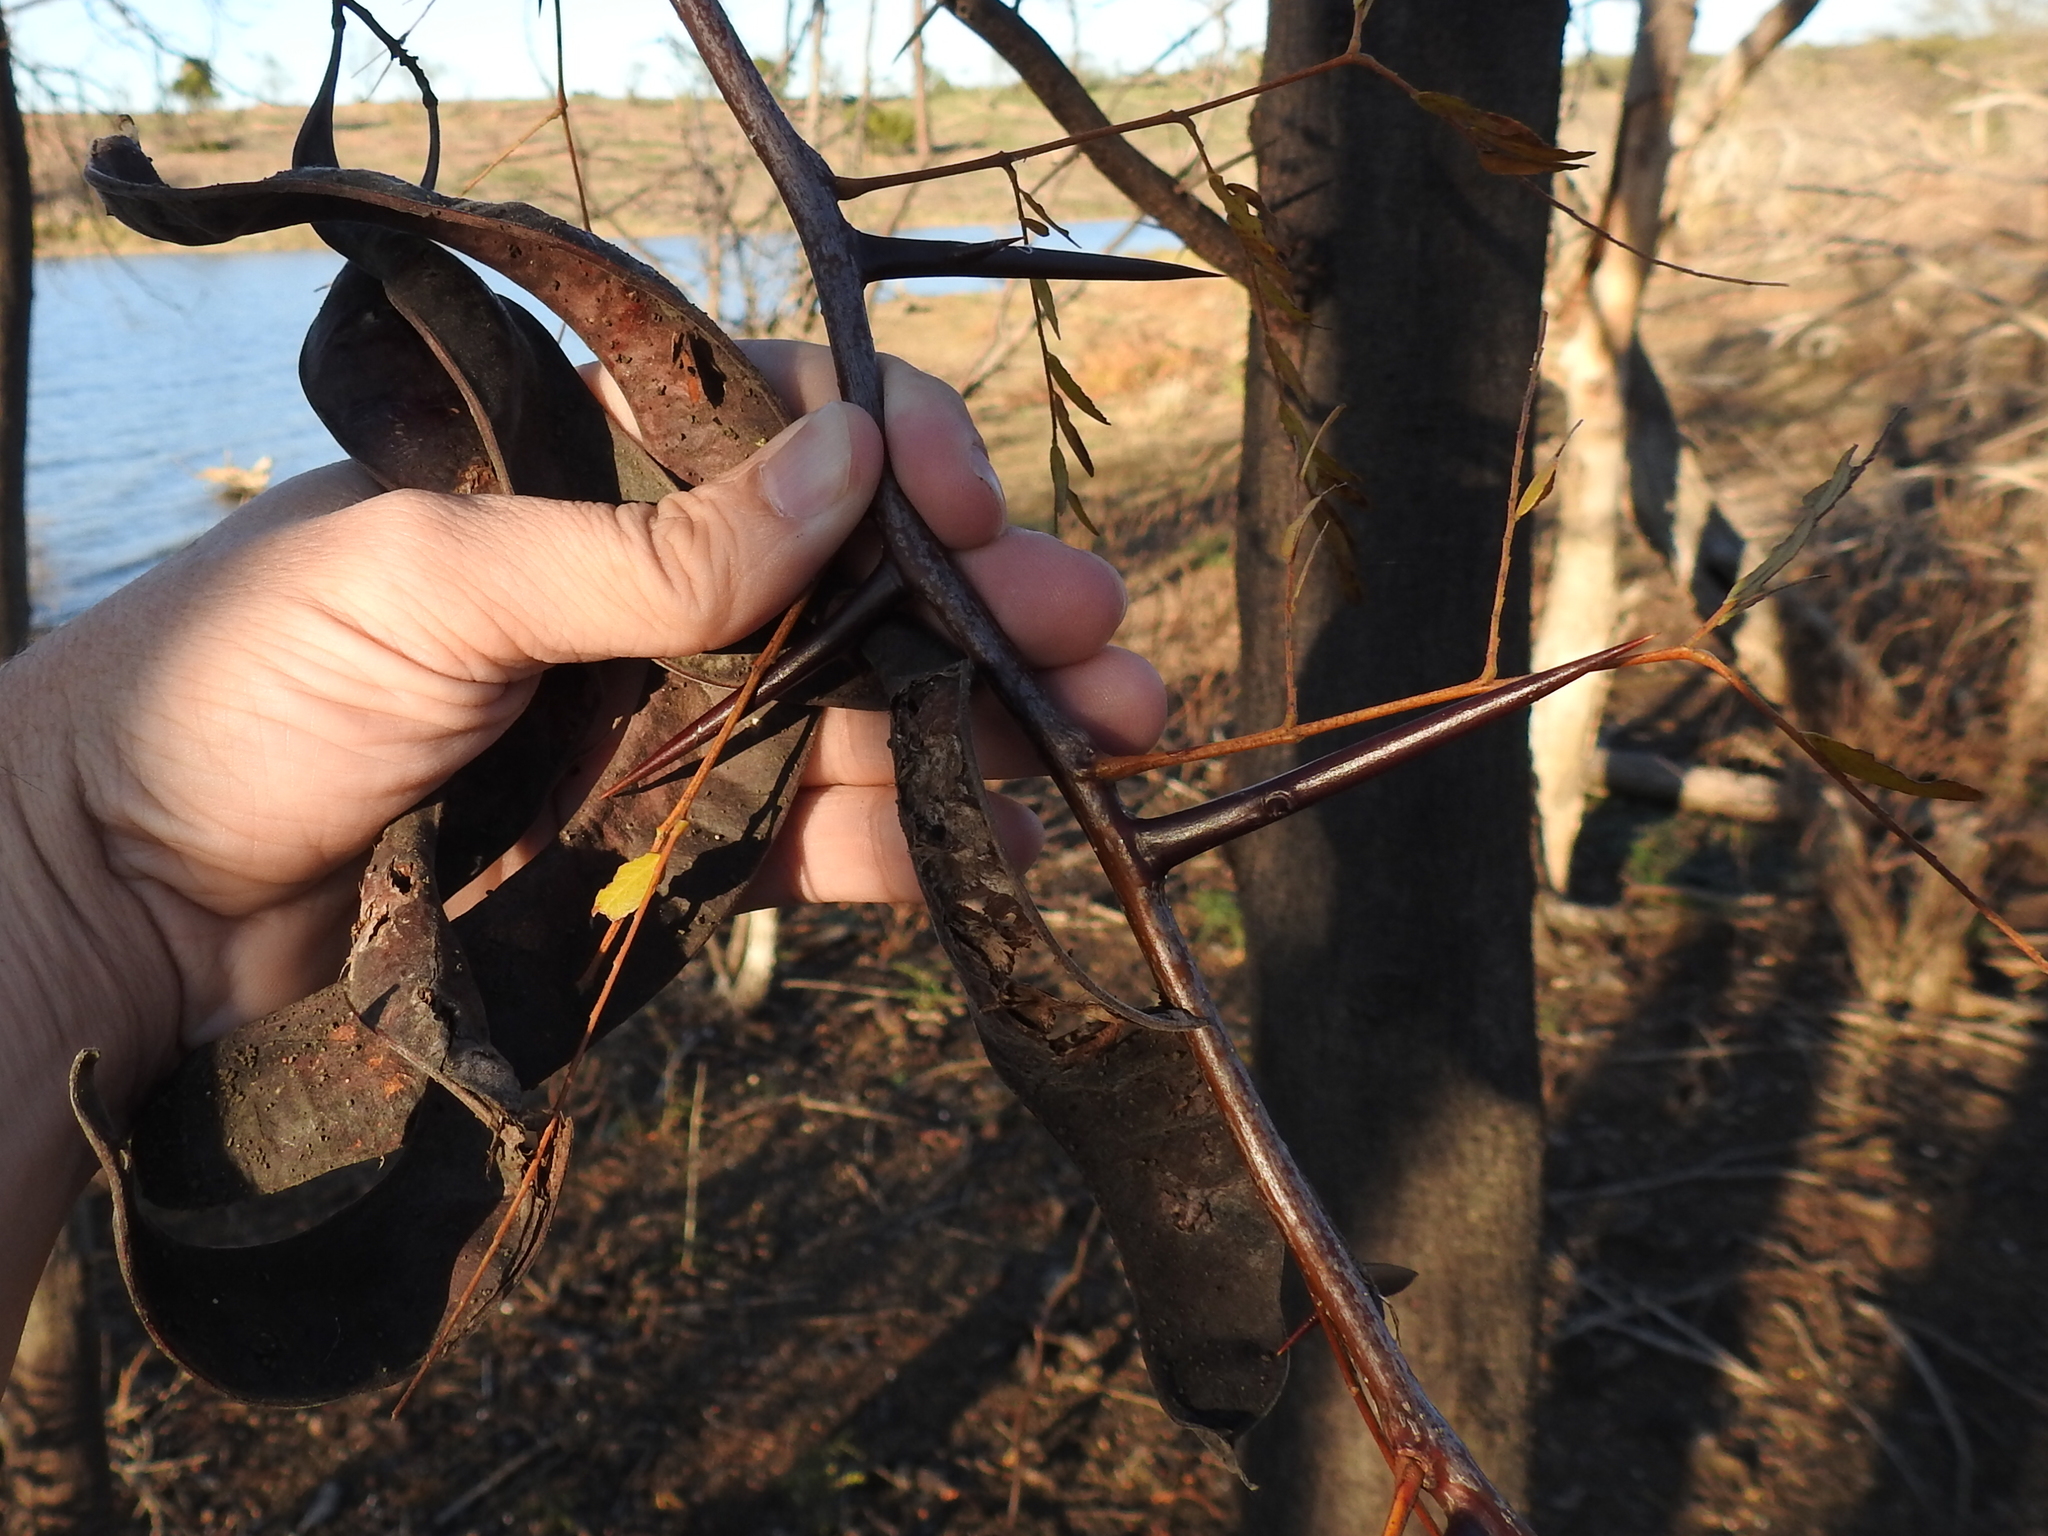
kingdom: Plantae
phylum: Tracheophyta
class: Magnoliopsida
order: Fabales
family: Fabaceae
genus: Gleditsia
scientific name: Gleditsia triacanthos
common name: Common honeylocust
